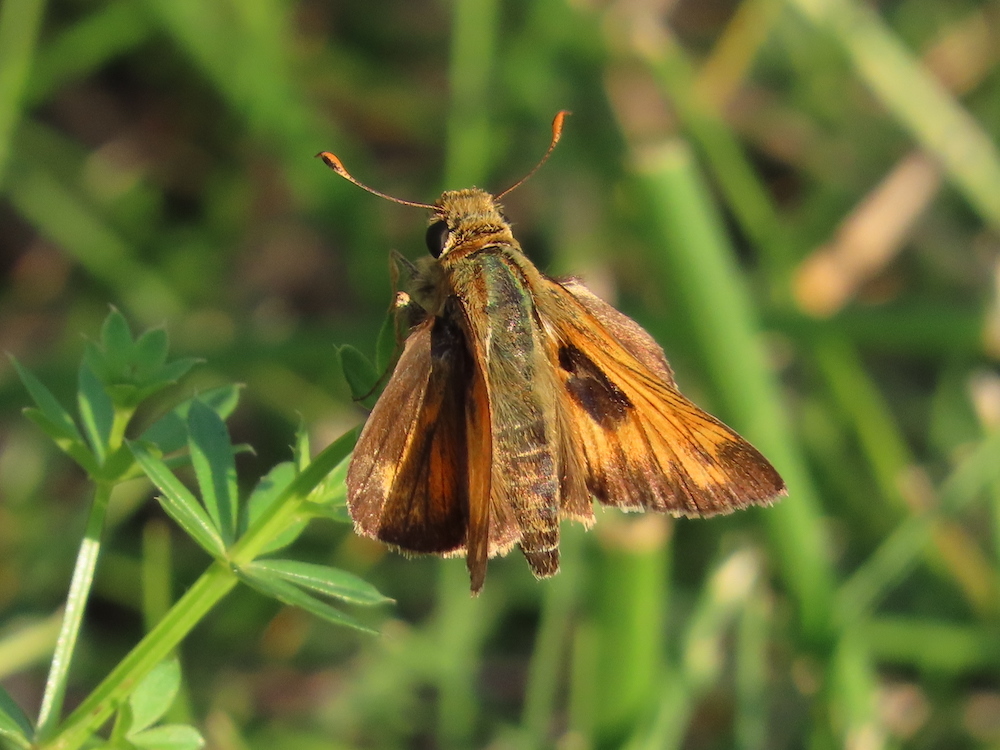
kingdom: Animalia
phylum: Arthropoda
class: Insecta
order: Lepidoptera
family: Hesperiidae
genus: Atalopedes
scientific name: Atalopedes
